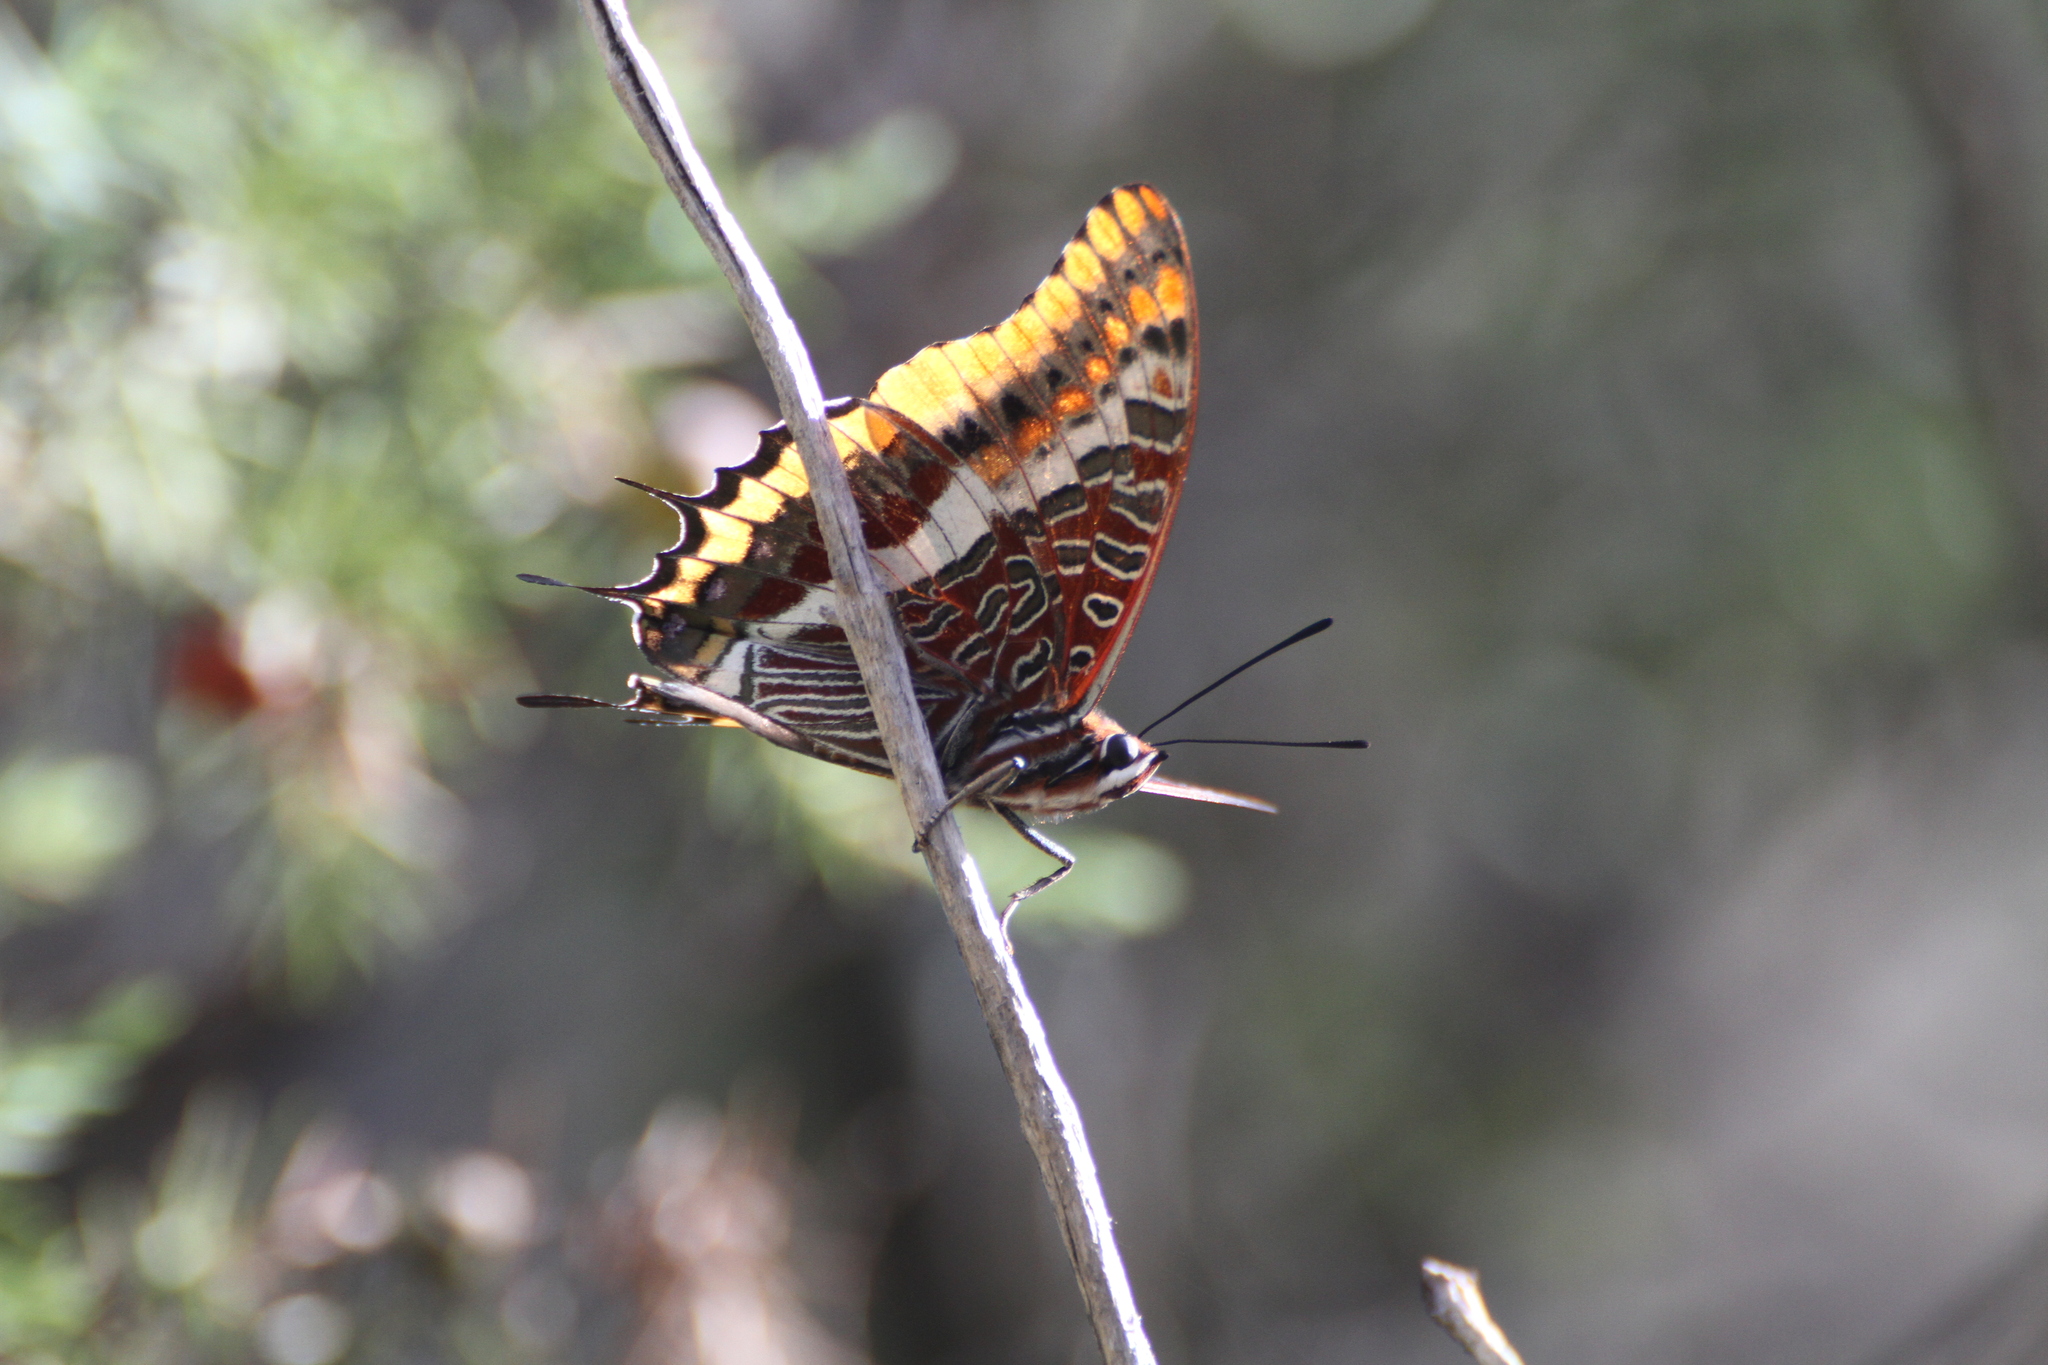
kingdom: Animalia
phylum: Arthropoda
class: Insecta
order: Lepidoptera
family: Nymphalidae
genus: Charaxes
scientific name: Charaxes jasius
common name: Two tailed pasha
